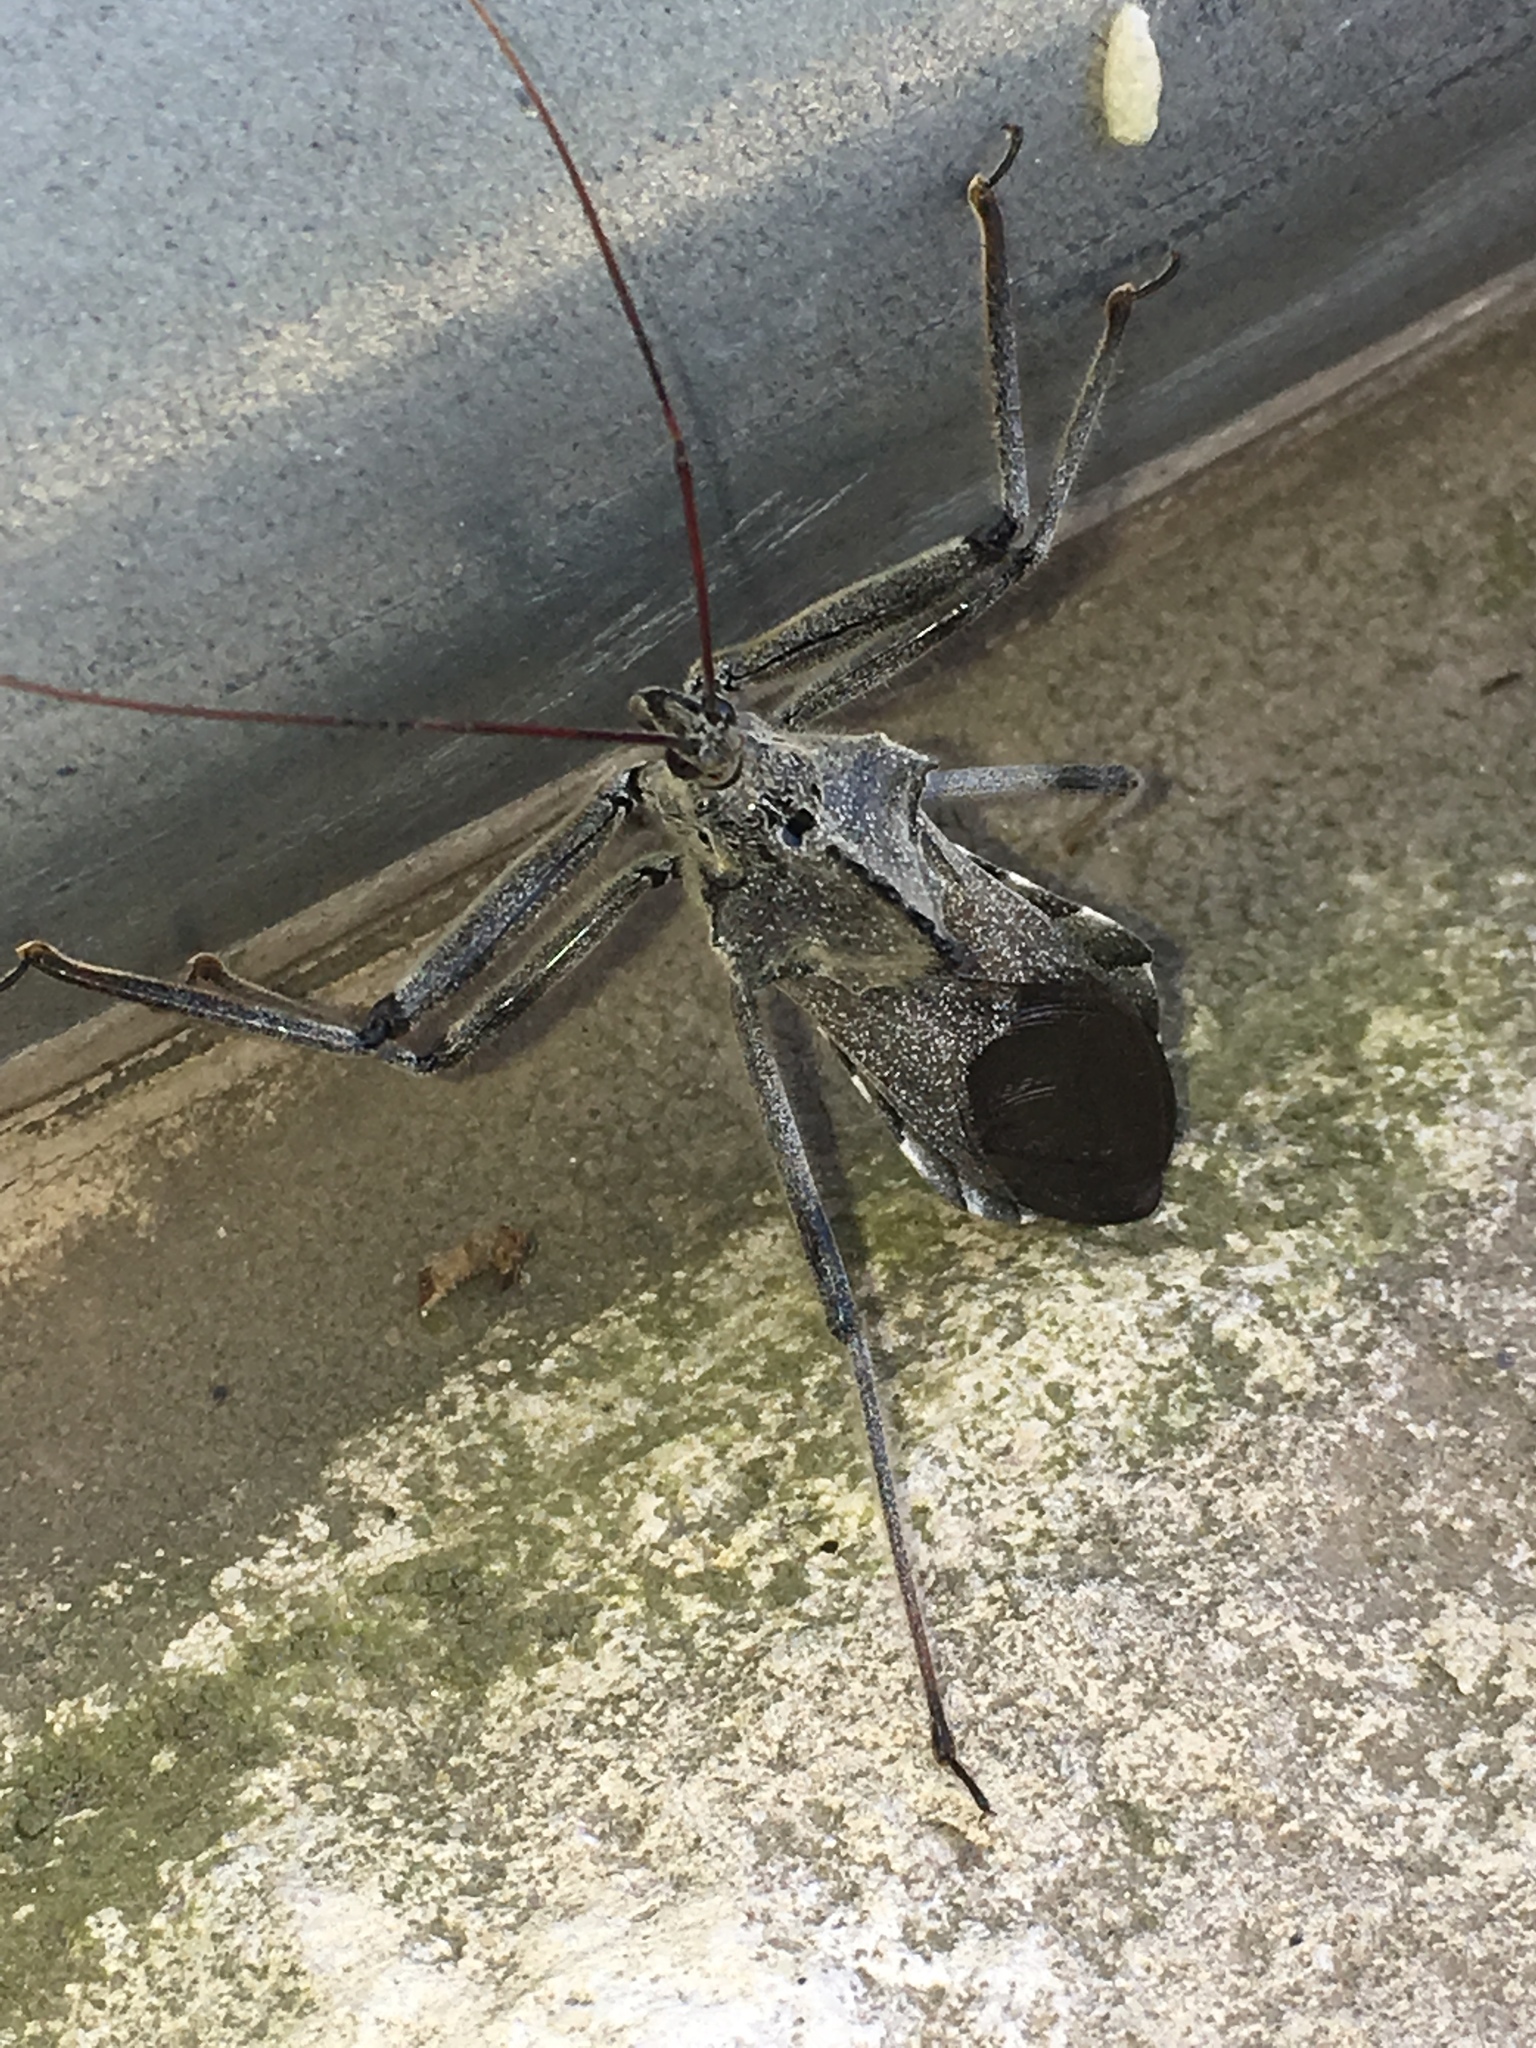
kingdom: Animalia
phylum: Arthropoda
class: Insecta
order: Hemiptera
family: Reduviidae
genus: Arilus
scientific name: Arilus cristatus
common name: North american wheel bug
